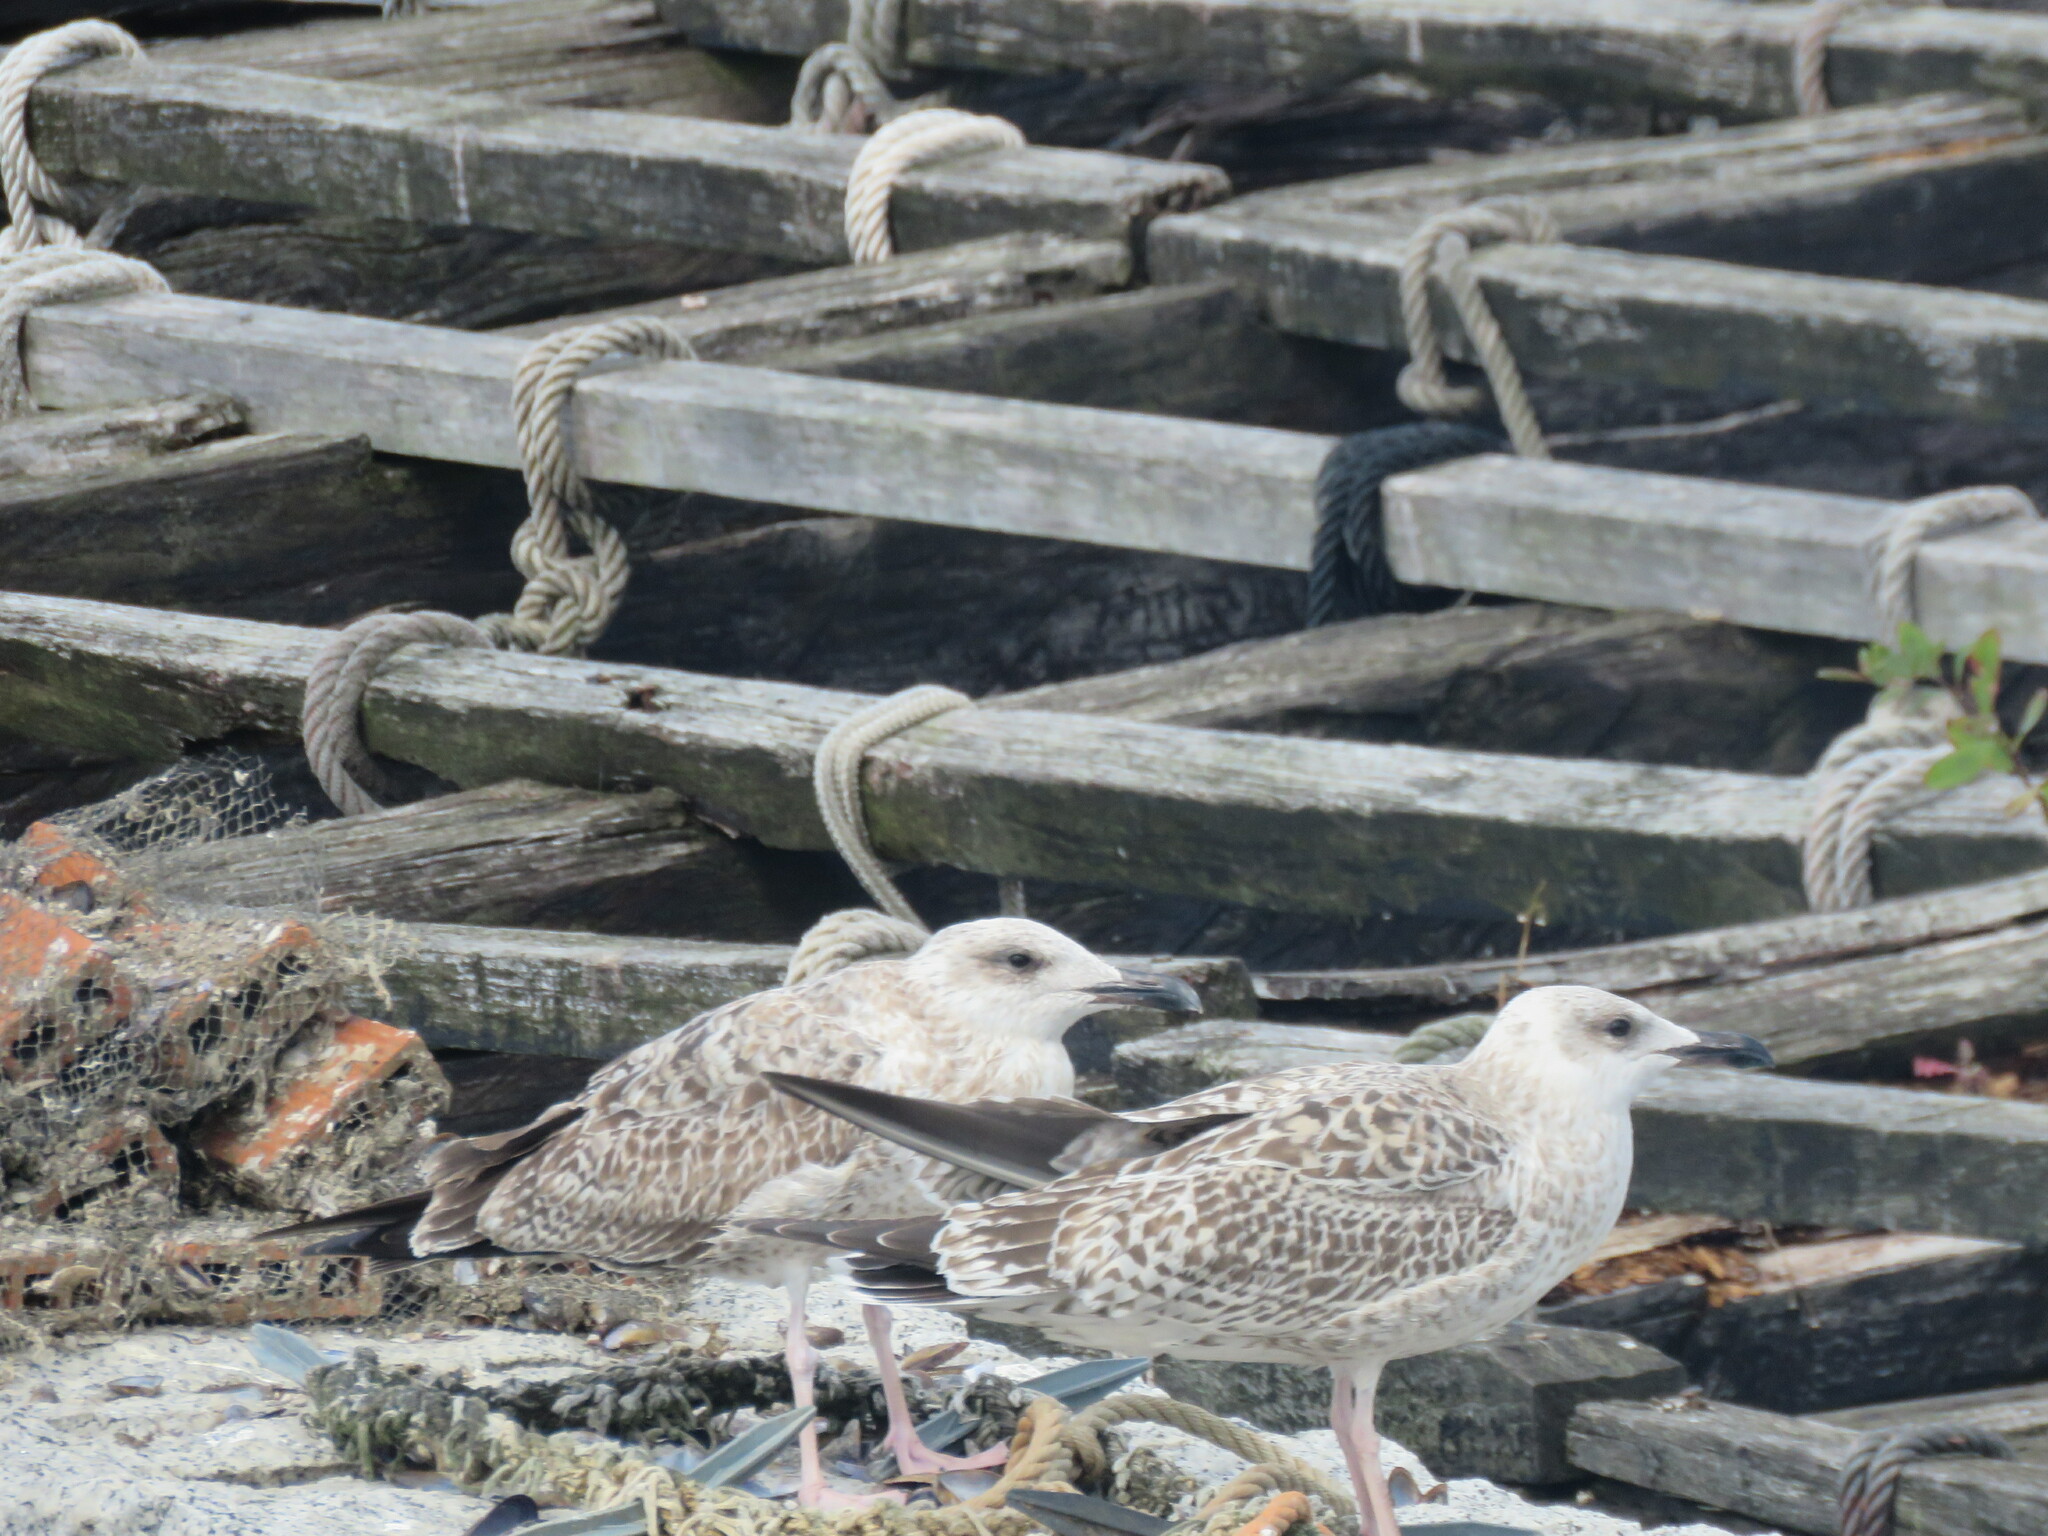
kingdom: Animalia
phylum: Chordata
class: Aves
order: Charadriiformes
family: Laridae
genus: Larus
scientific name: Larus michahellis
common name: Yellow-legged gull
